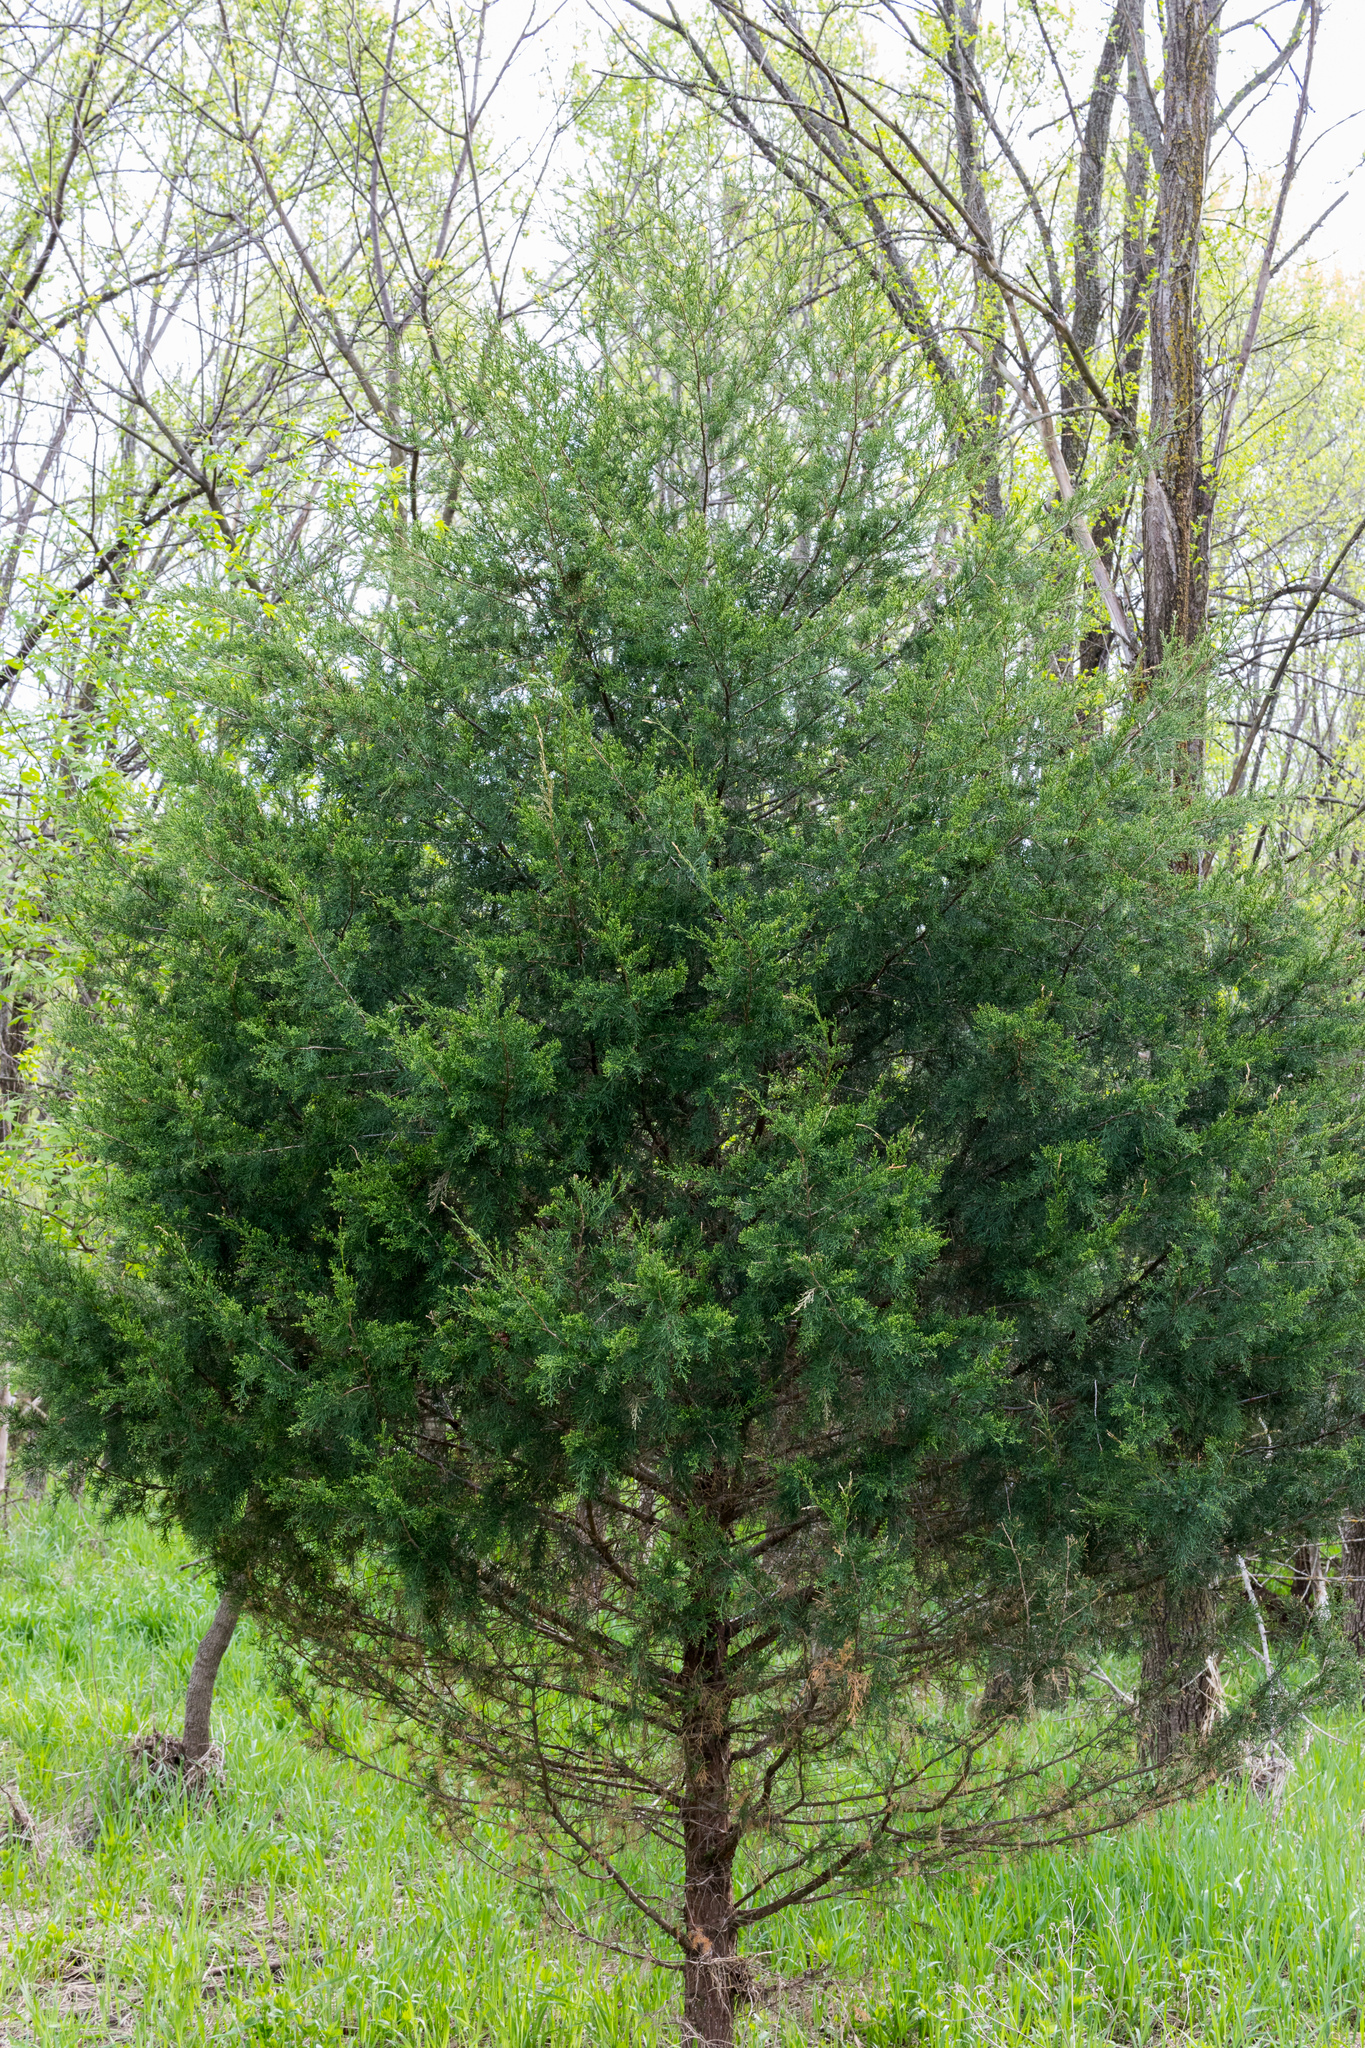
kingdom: Plantae
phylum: Tracheophyta
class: Pinopsida
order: Pinales
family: Cupressaceae
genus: Juniperus
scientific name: Juniperus virginiana
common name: Red juniper
